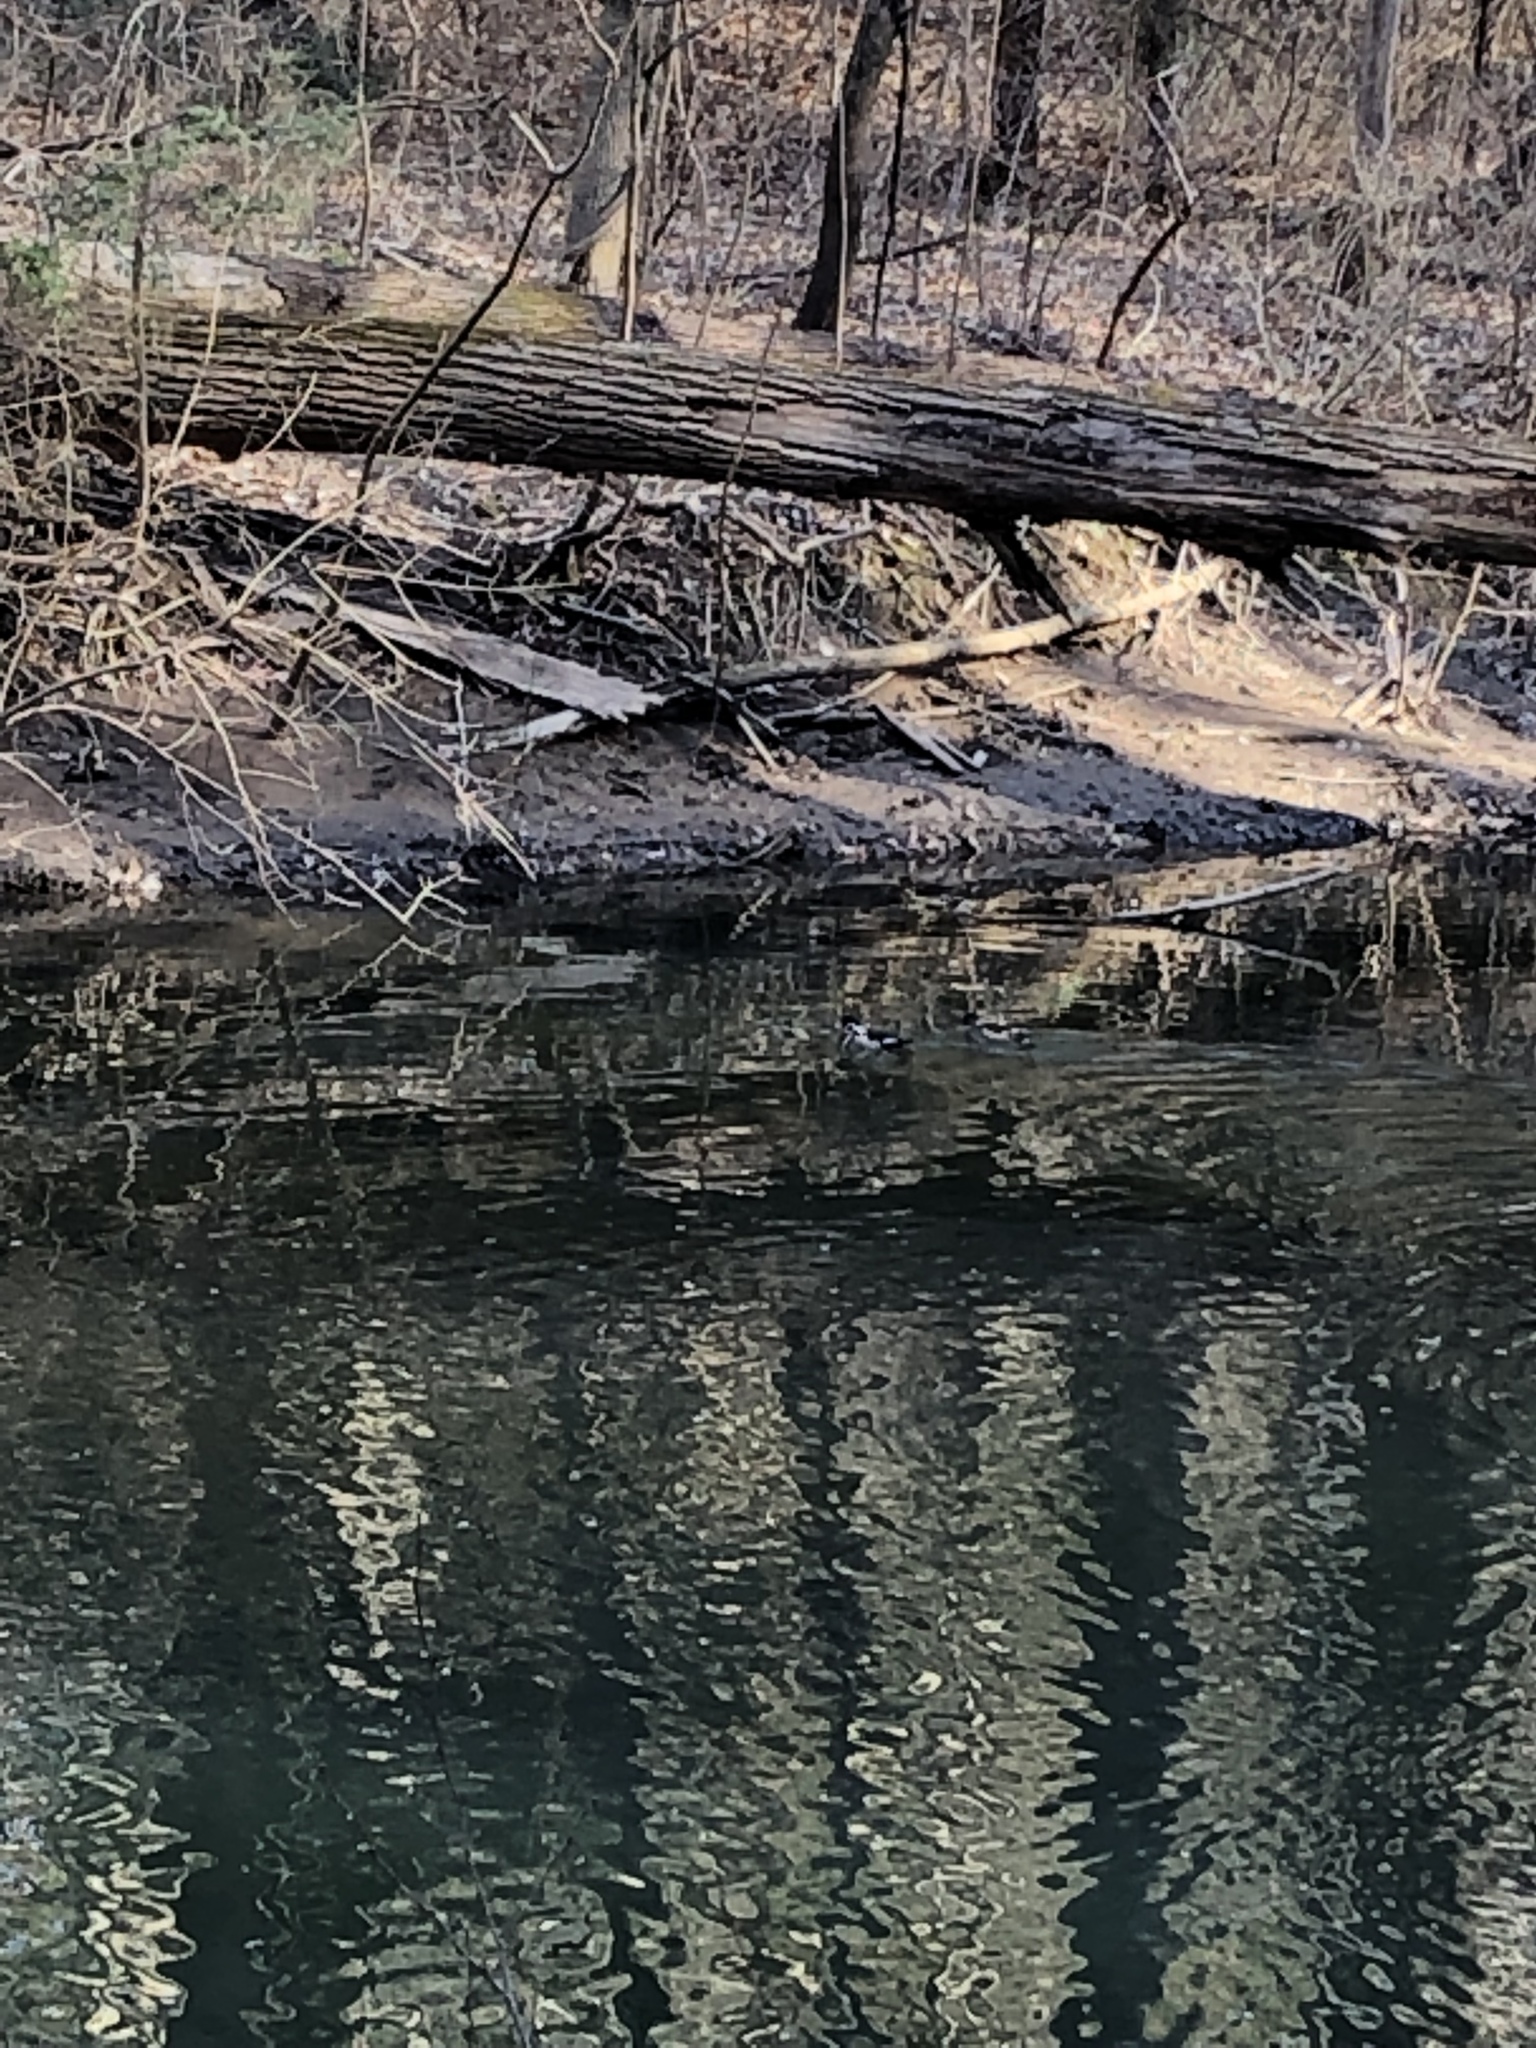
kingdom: Animalia
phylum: Chordata
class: Aves
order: Anseriformes
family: Anatidae
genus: Aix
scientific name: Aix sponsa
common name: Wood duck
